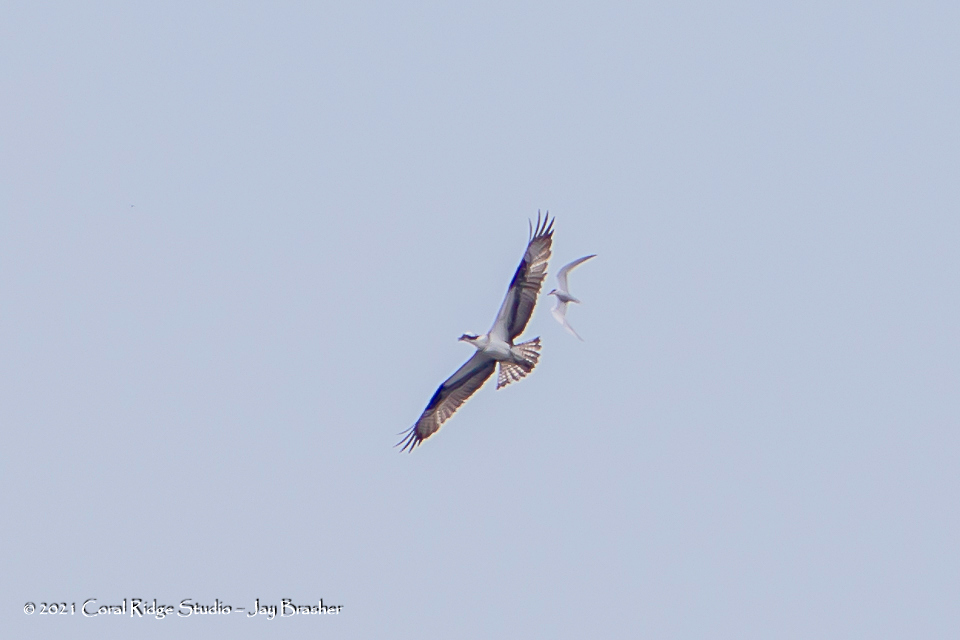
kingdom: Animalia
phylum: Chordata
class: Aves
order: Accipitriformes
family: Pandionidae
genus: Pandion
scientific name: Pandion haliaetus
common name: Osprey
